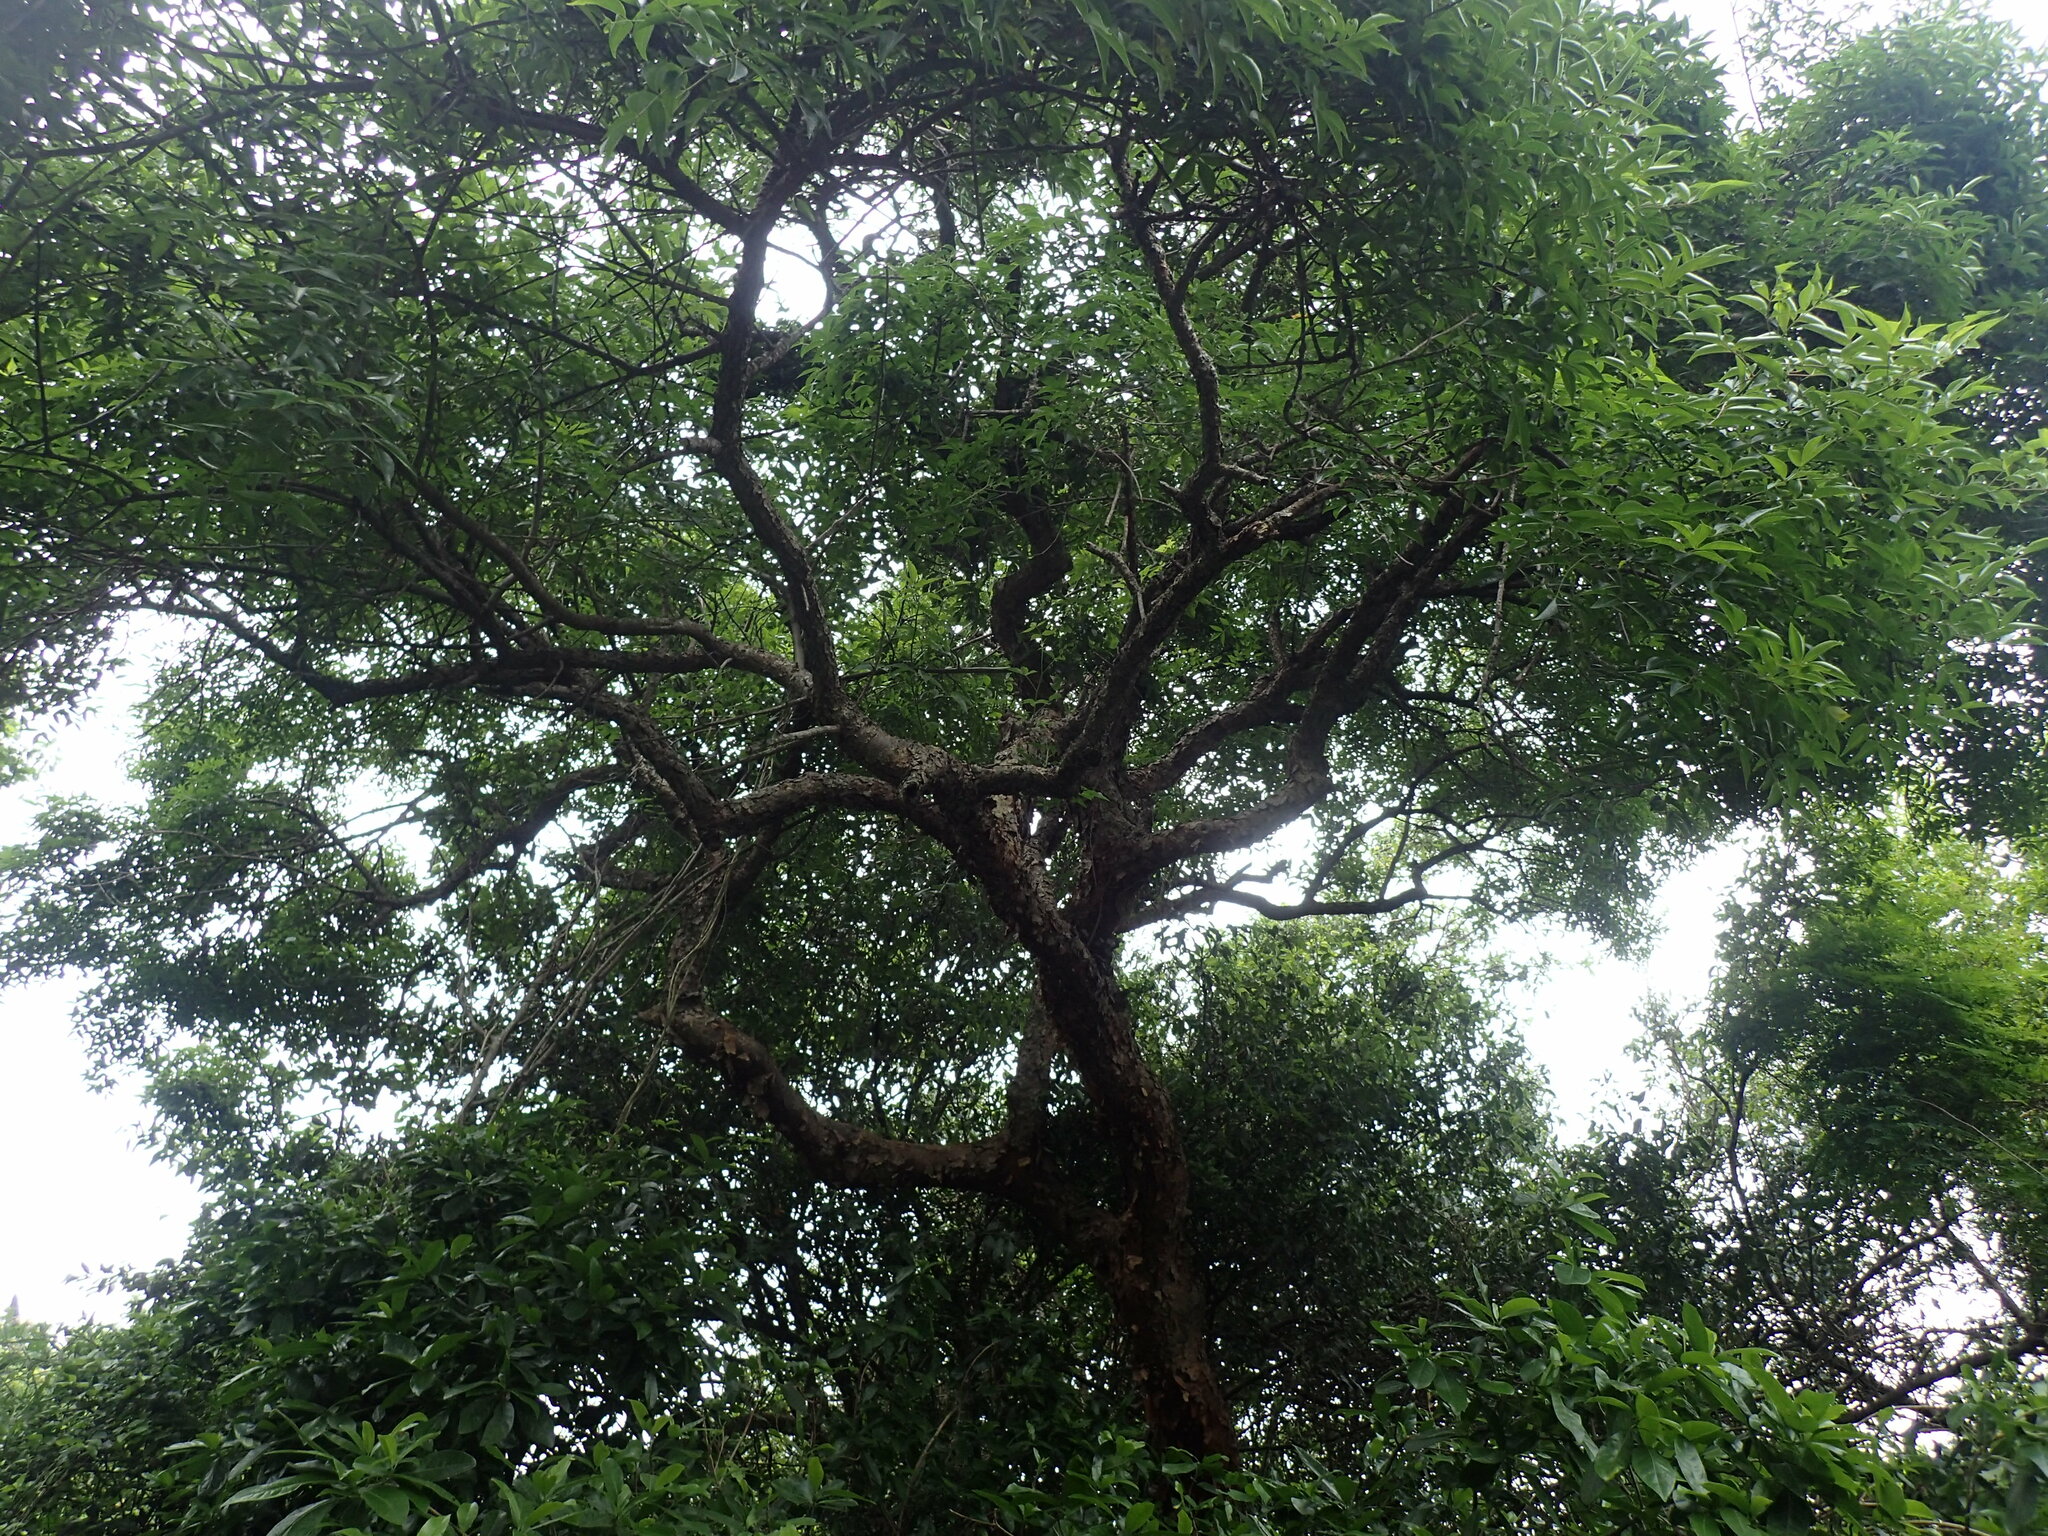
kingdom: Plantae
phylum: Tracheophyta
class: Magnoliopsida
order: Sapindales
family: Burseraceae
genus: Commiphora
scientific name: Commiphora harveyi
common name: Copper-stem corkwood
